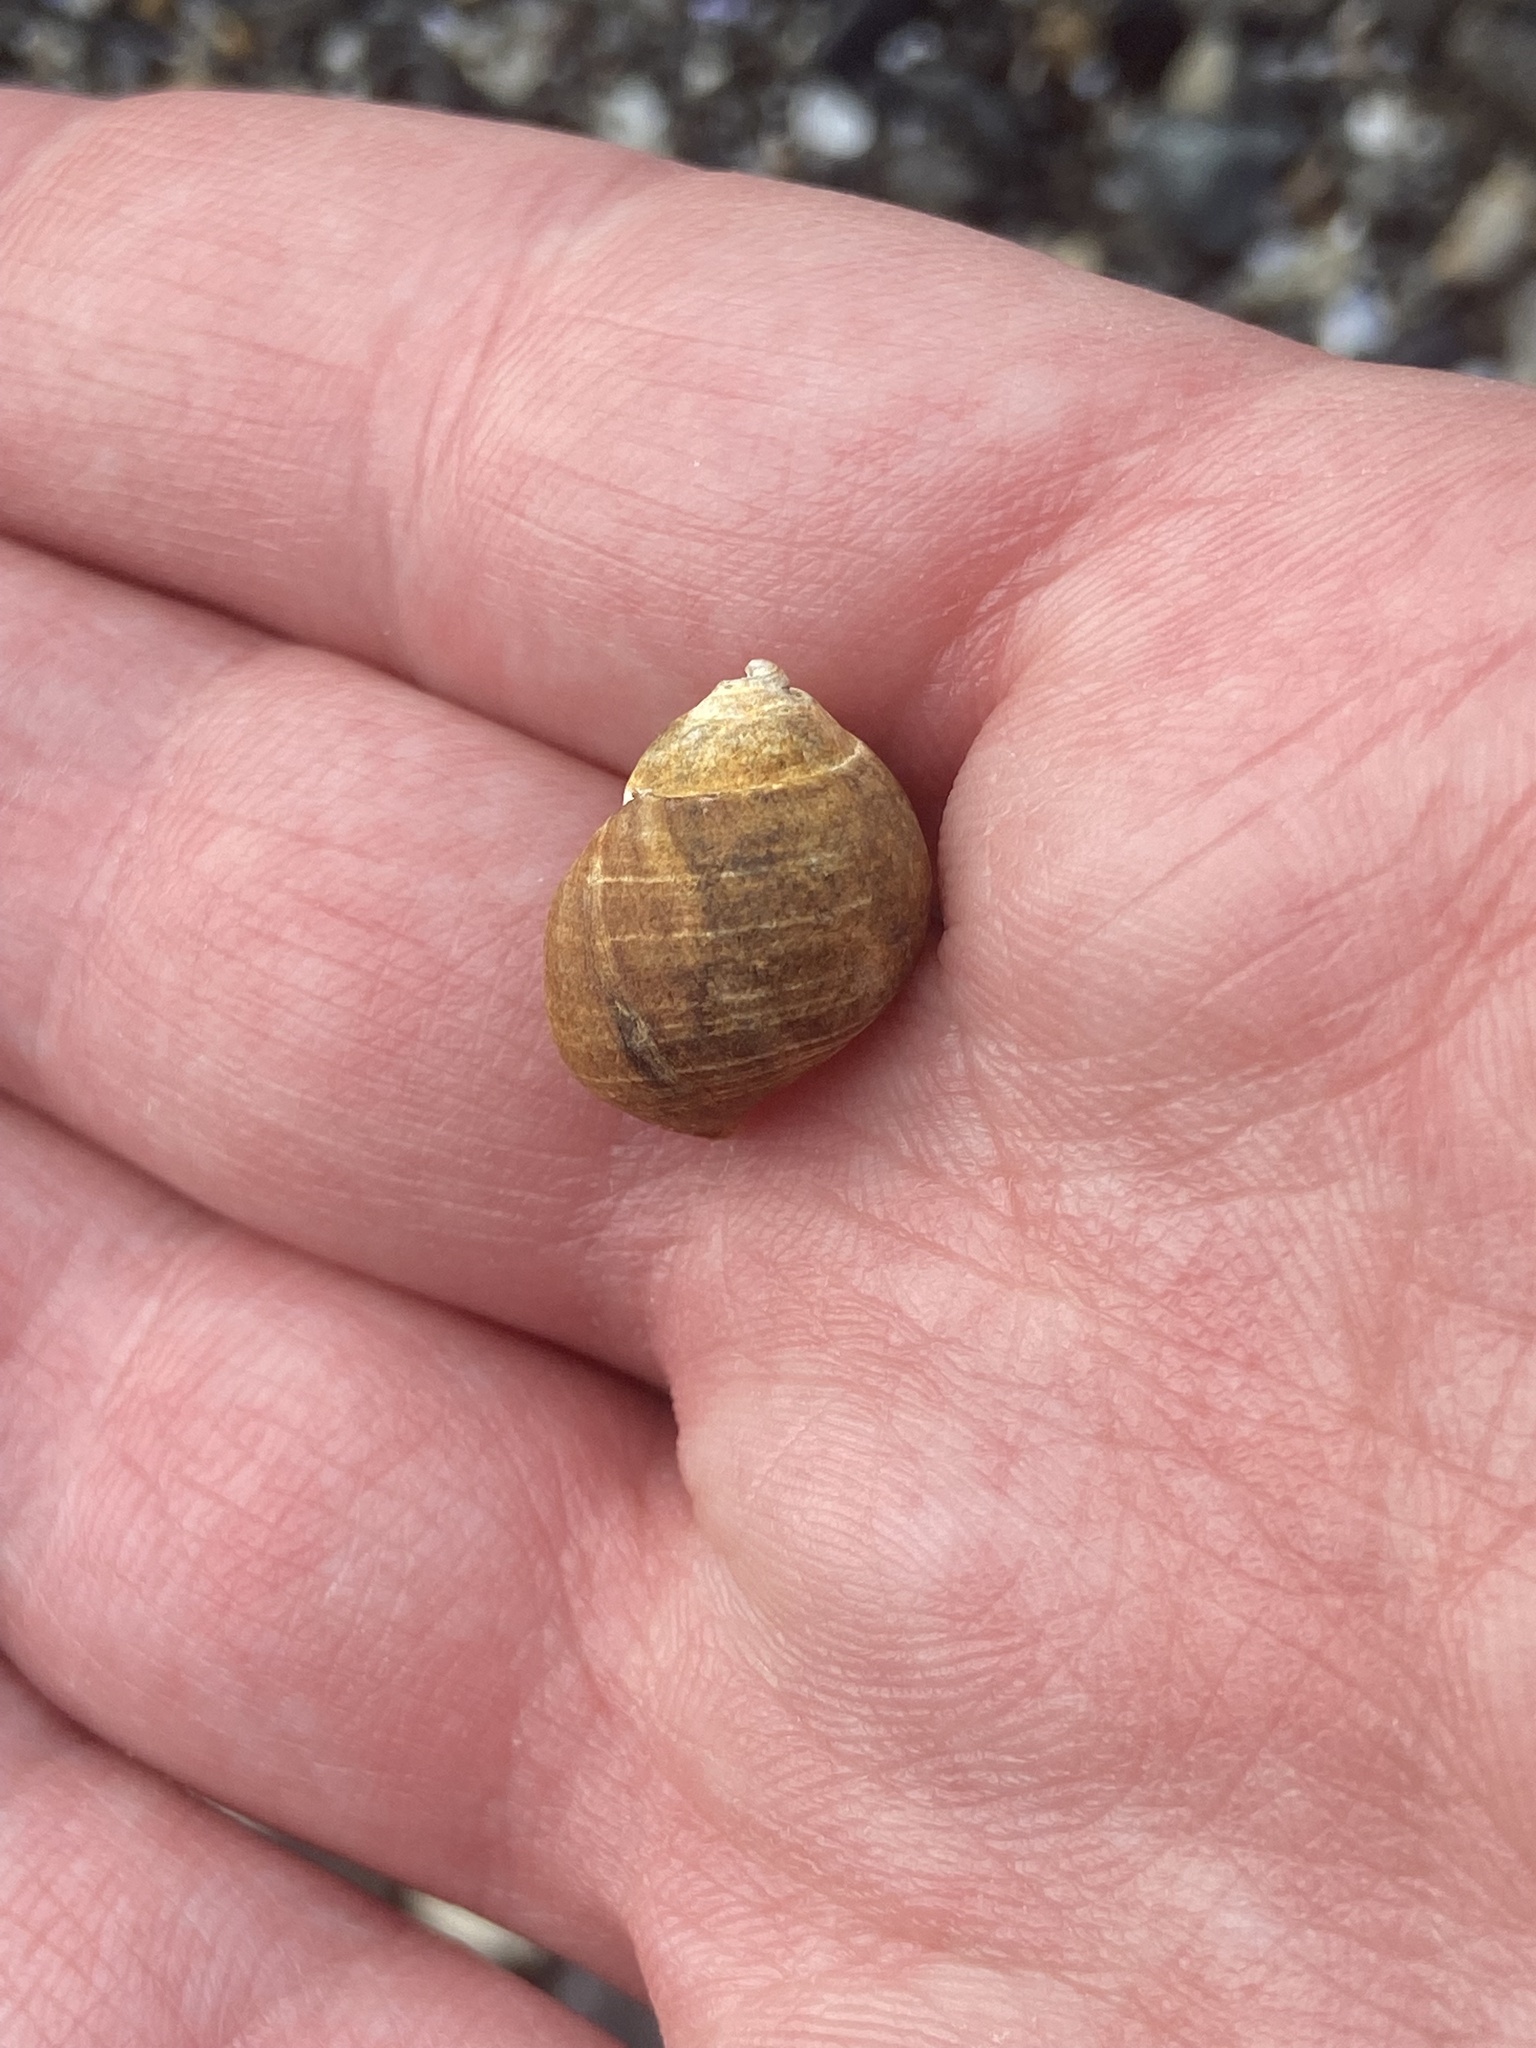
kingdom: Animalia
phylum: Mollusca
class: Gastropoda
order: Littorinimorpha
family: Littorinidae
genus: Littorina
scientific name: Littorina littorea
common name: Common periwinkle
